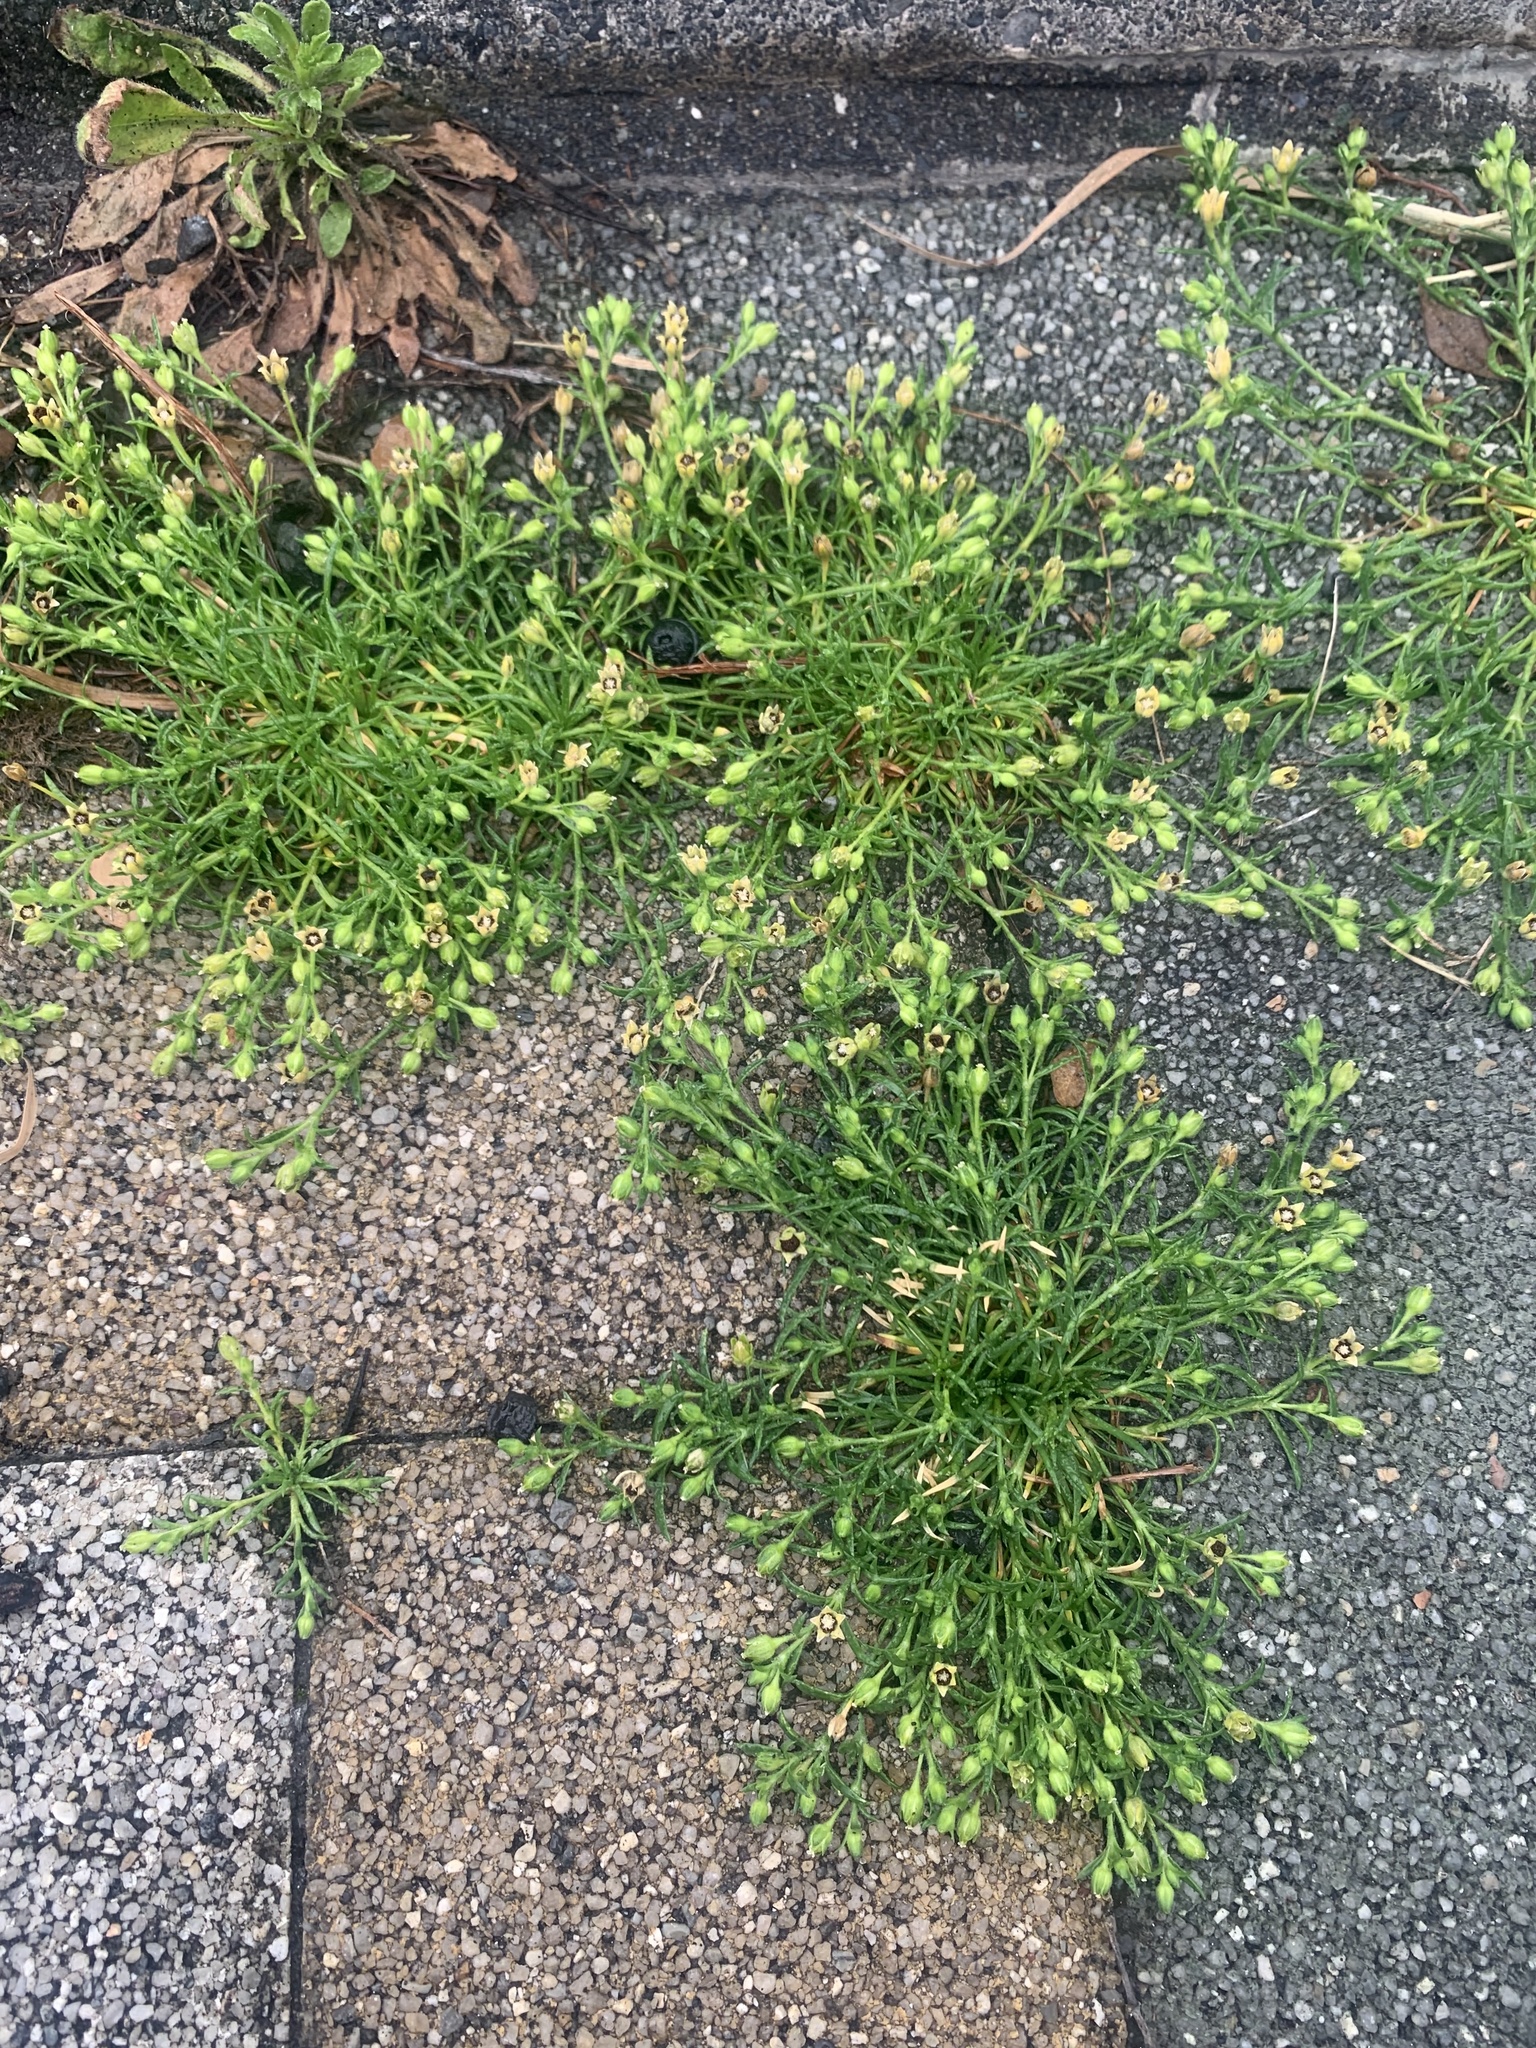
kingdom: Plantae
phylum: Tracheophyta
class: Magnoliopsida
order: Caryophyllales
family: Caryophyllaceae
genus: Sagina
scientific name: Sagina japonica
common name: Japanese pearlwort
